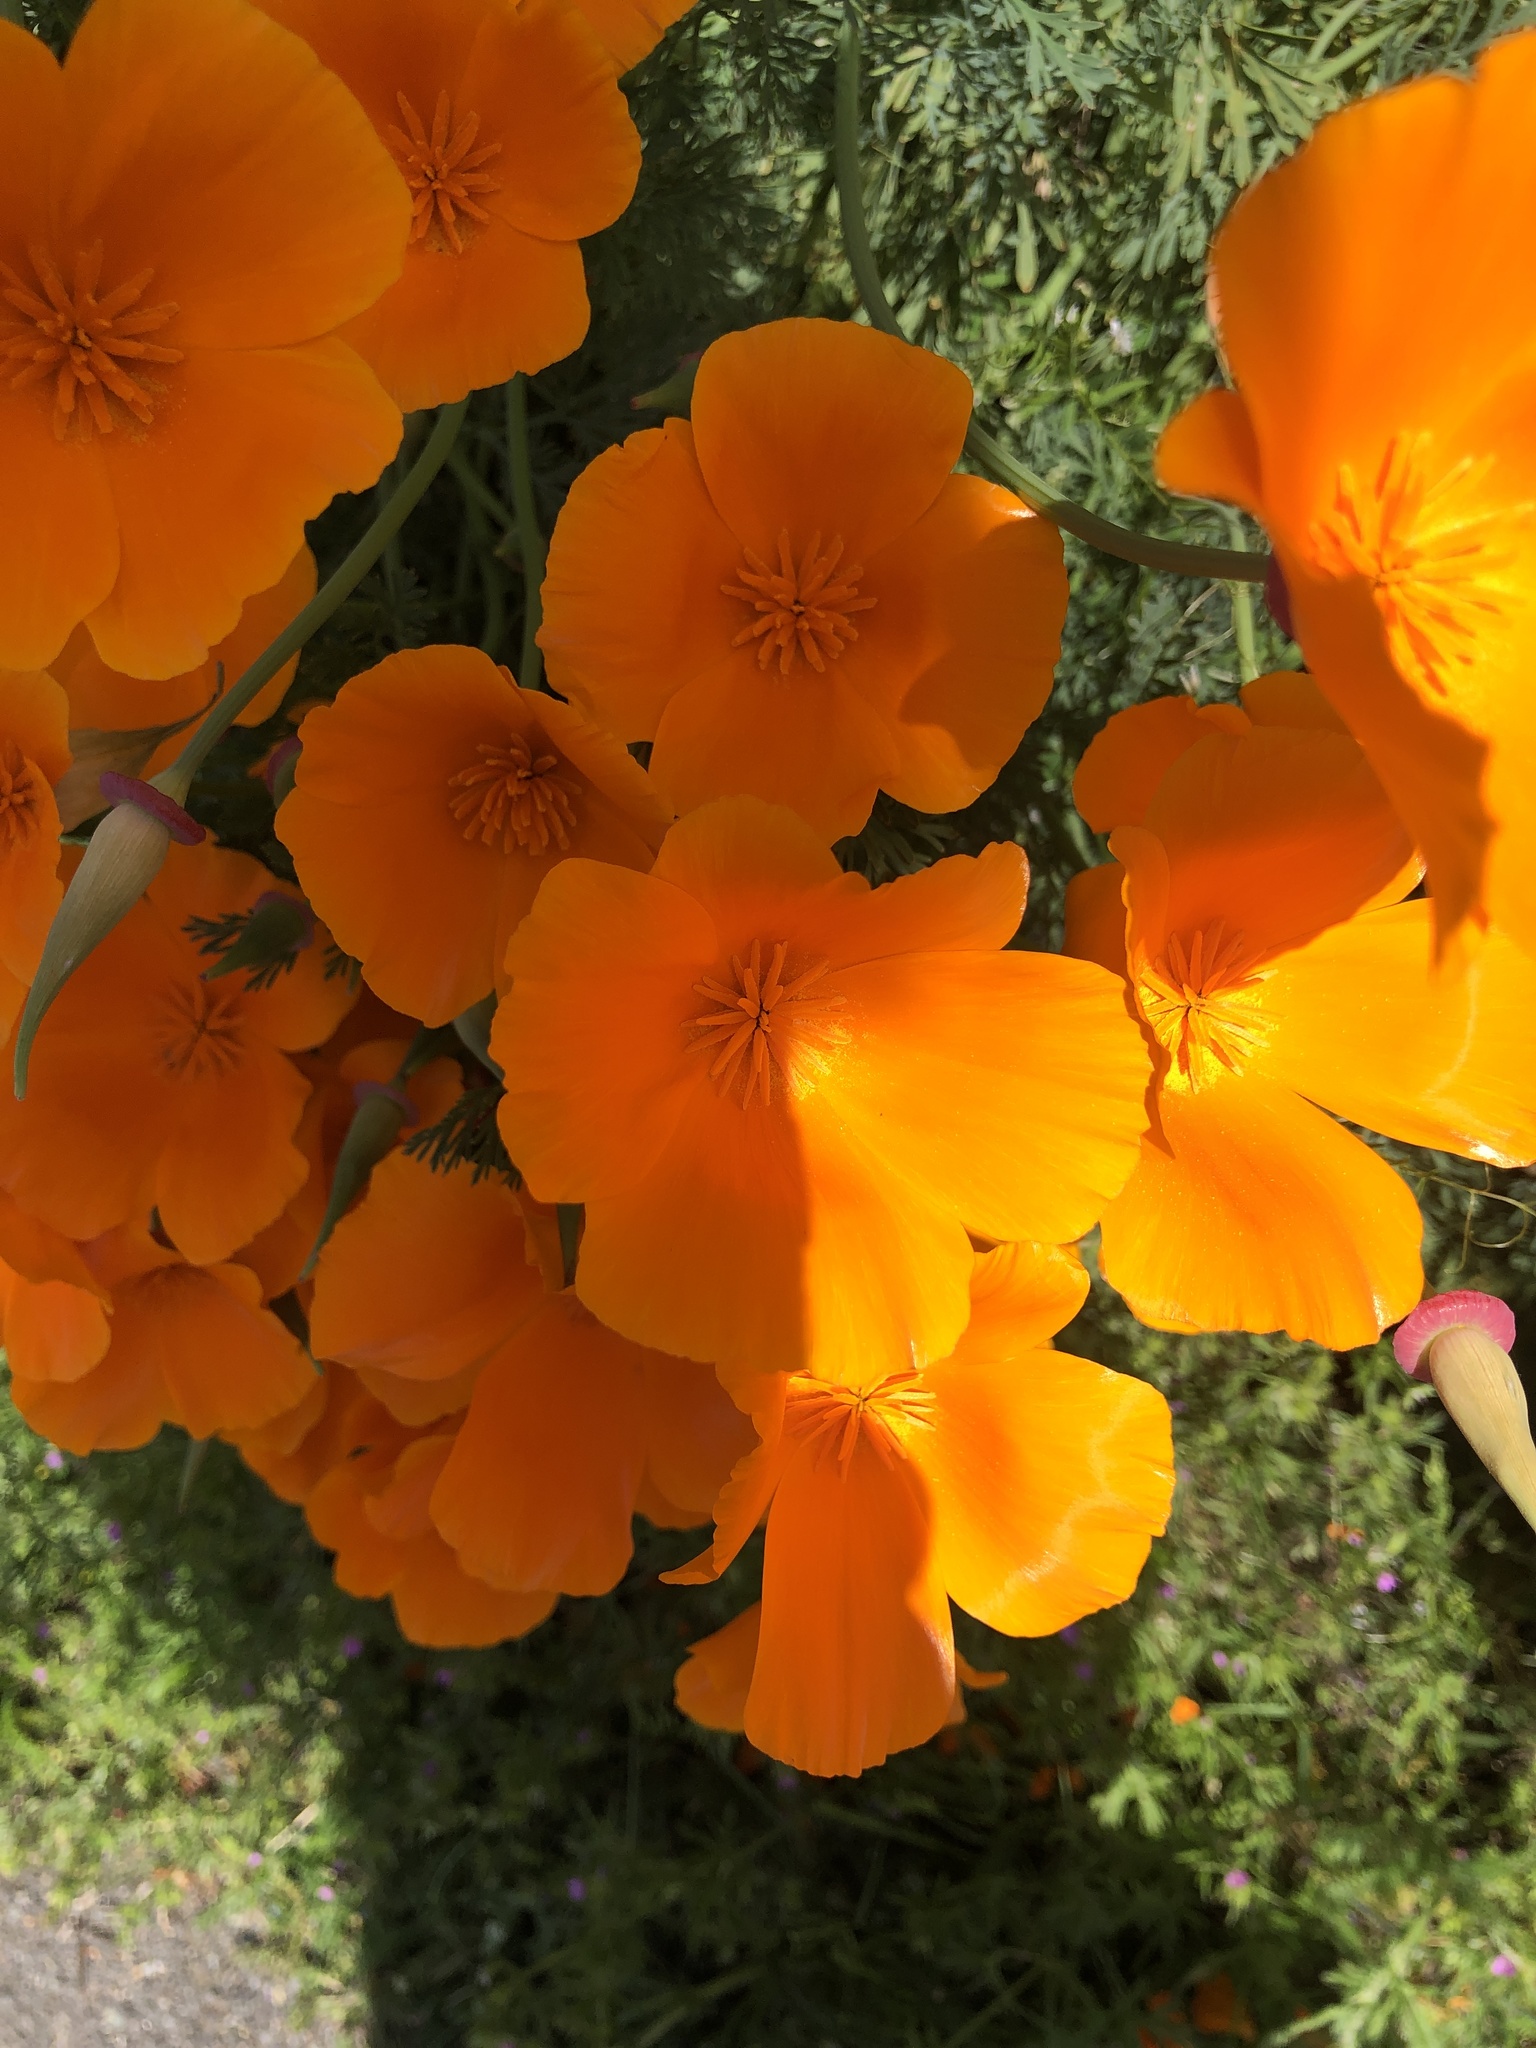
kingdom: Plantae
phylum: Tracheophyta
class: Magnoliopsida
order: Ranunculales
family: Papaveraceae
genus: Eschscholzia
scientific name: Eschscholzia californica
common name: California poppy
